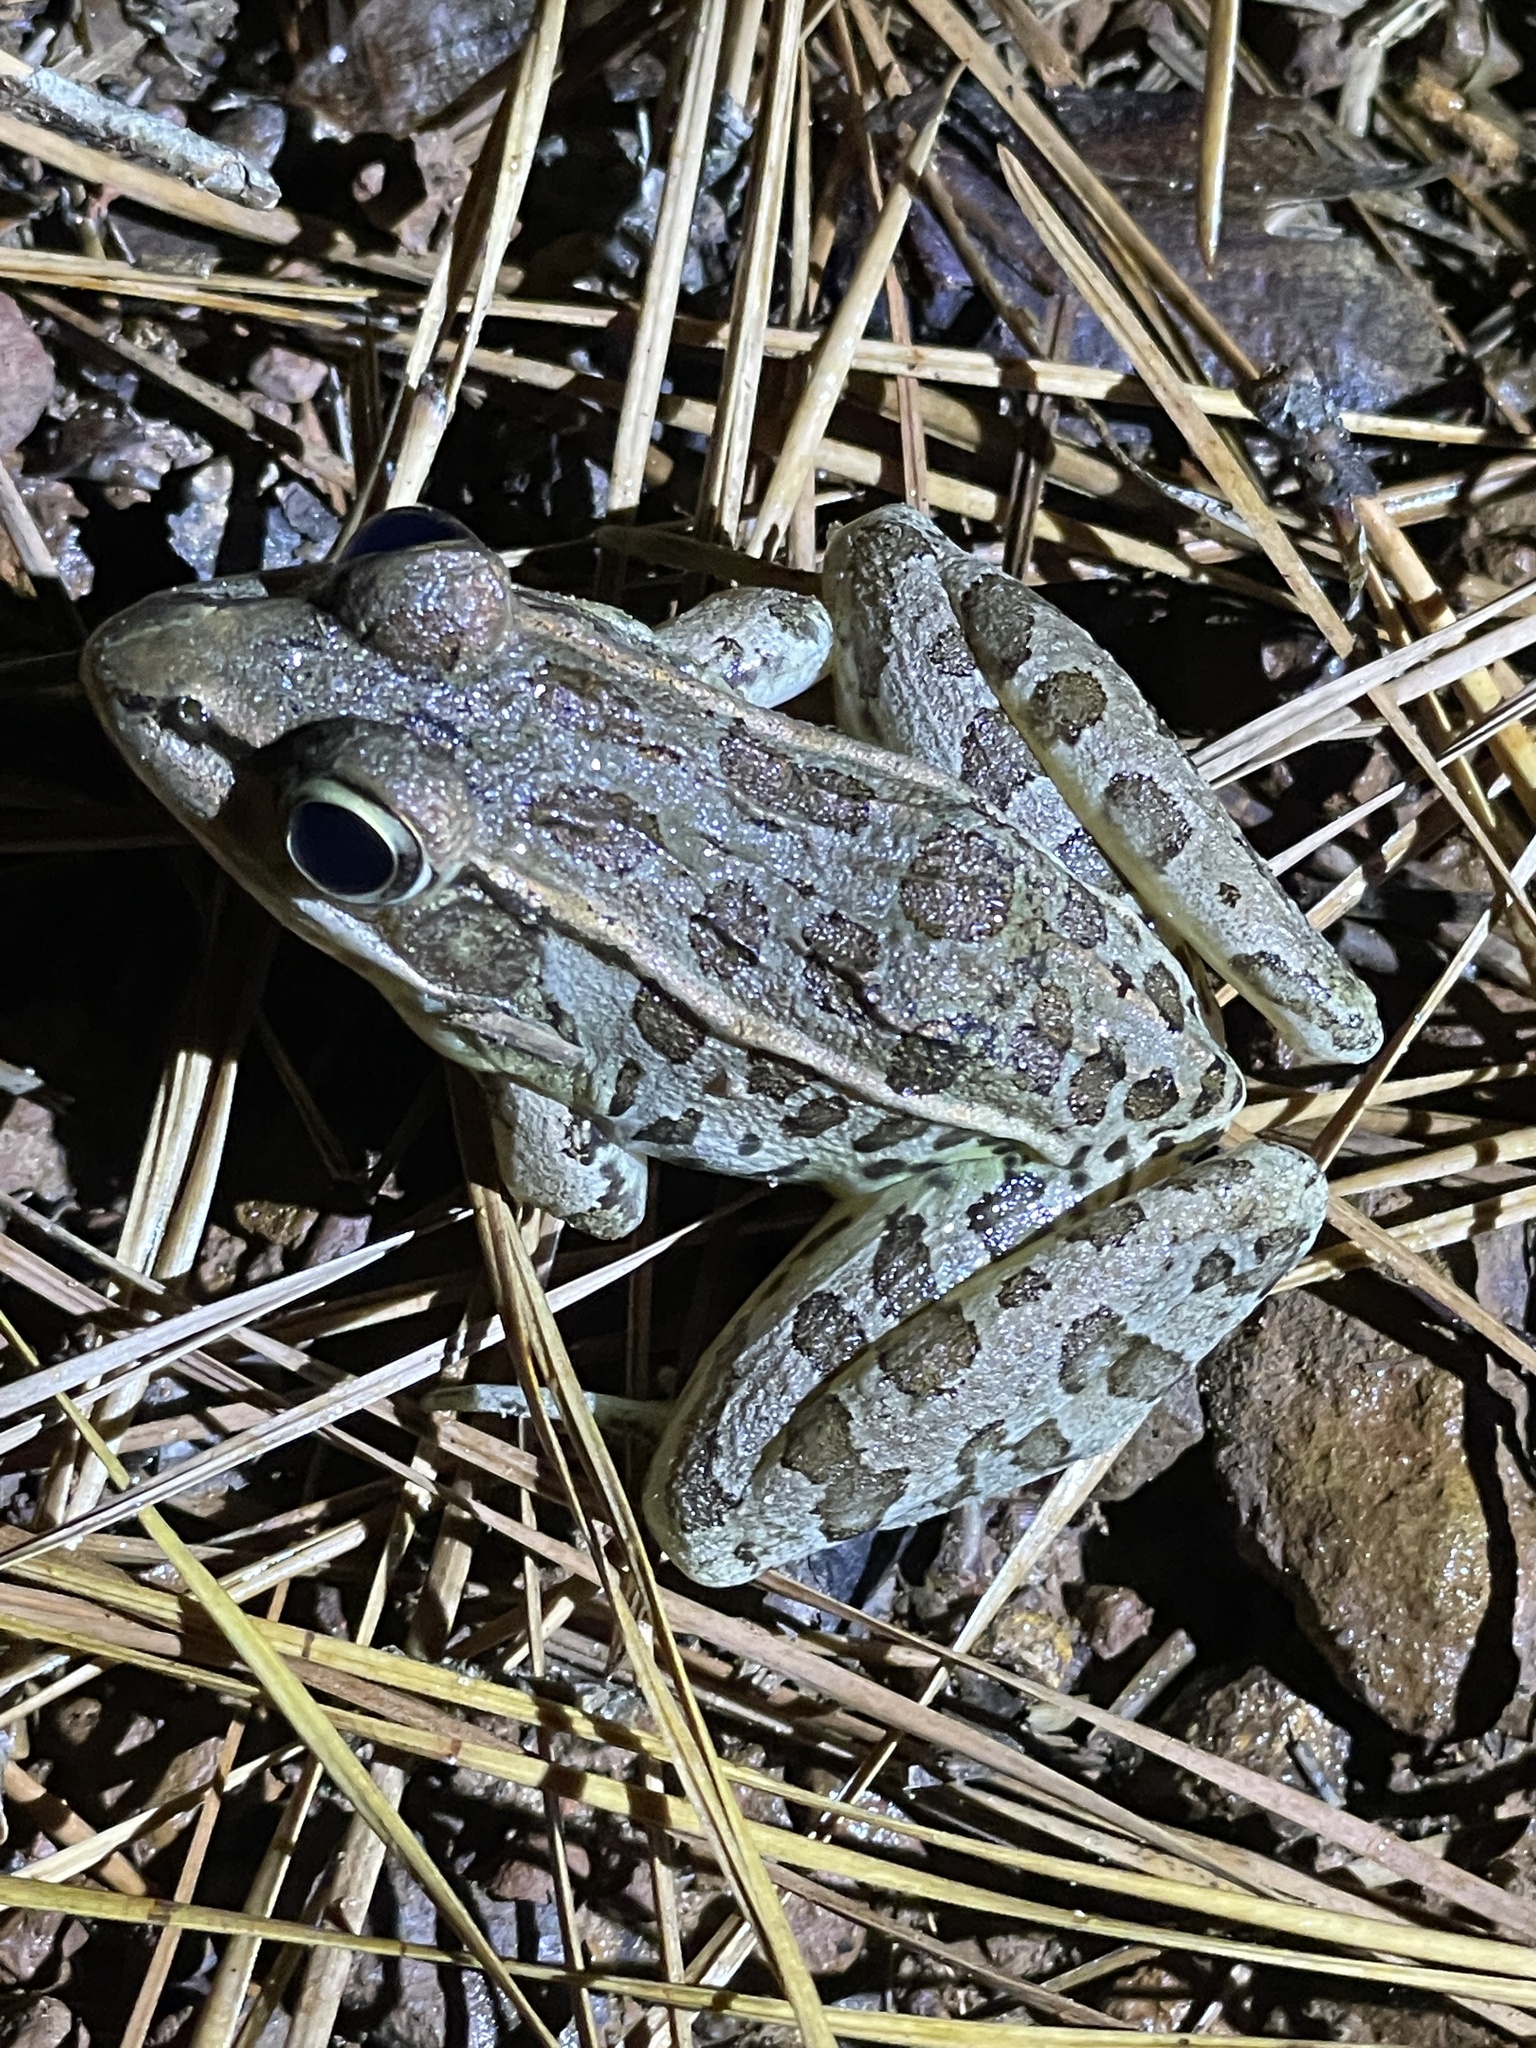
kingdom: Animalia
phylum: Chordata
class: Amphibia
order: Anura
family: Ranidae
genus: Lithobates
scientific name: Lithobates sphenocephalus
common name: Southern leopard frog
